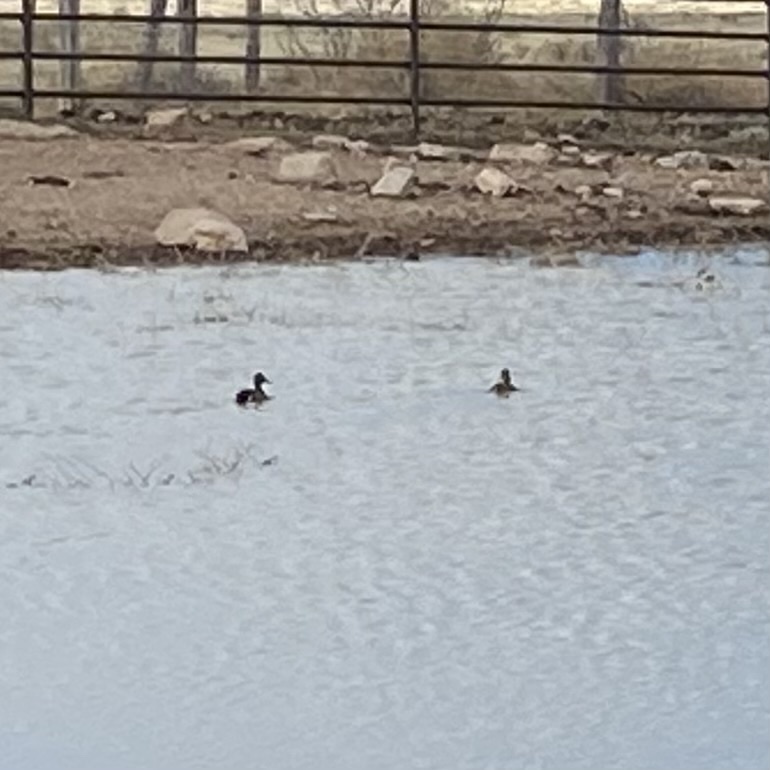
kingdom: Animalia
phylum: Chordata
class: Aves
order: Anseriformes
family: Anatidae
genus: Spatula
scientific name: Spatula discors
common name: Blue-winged teal
